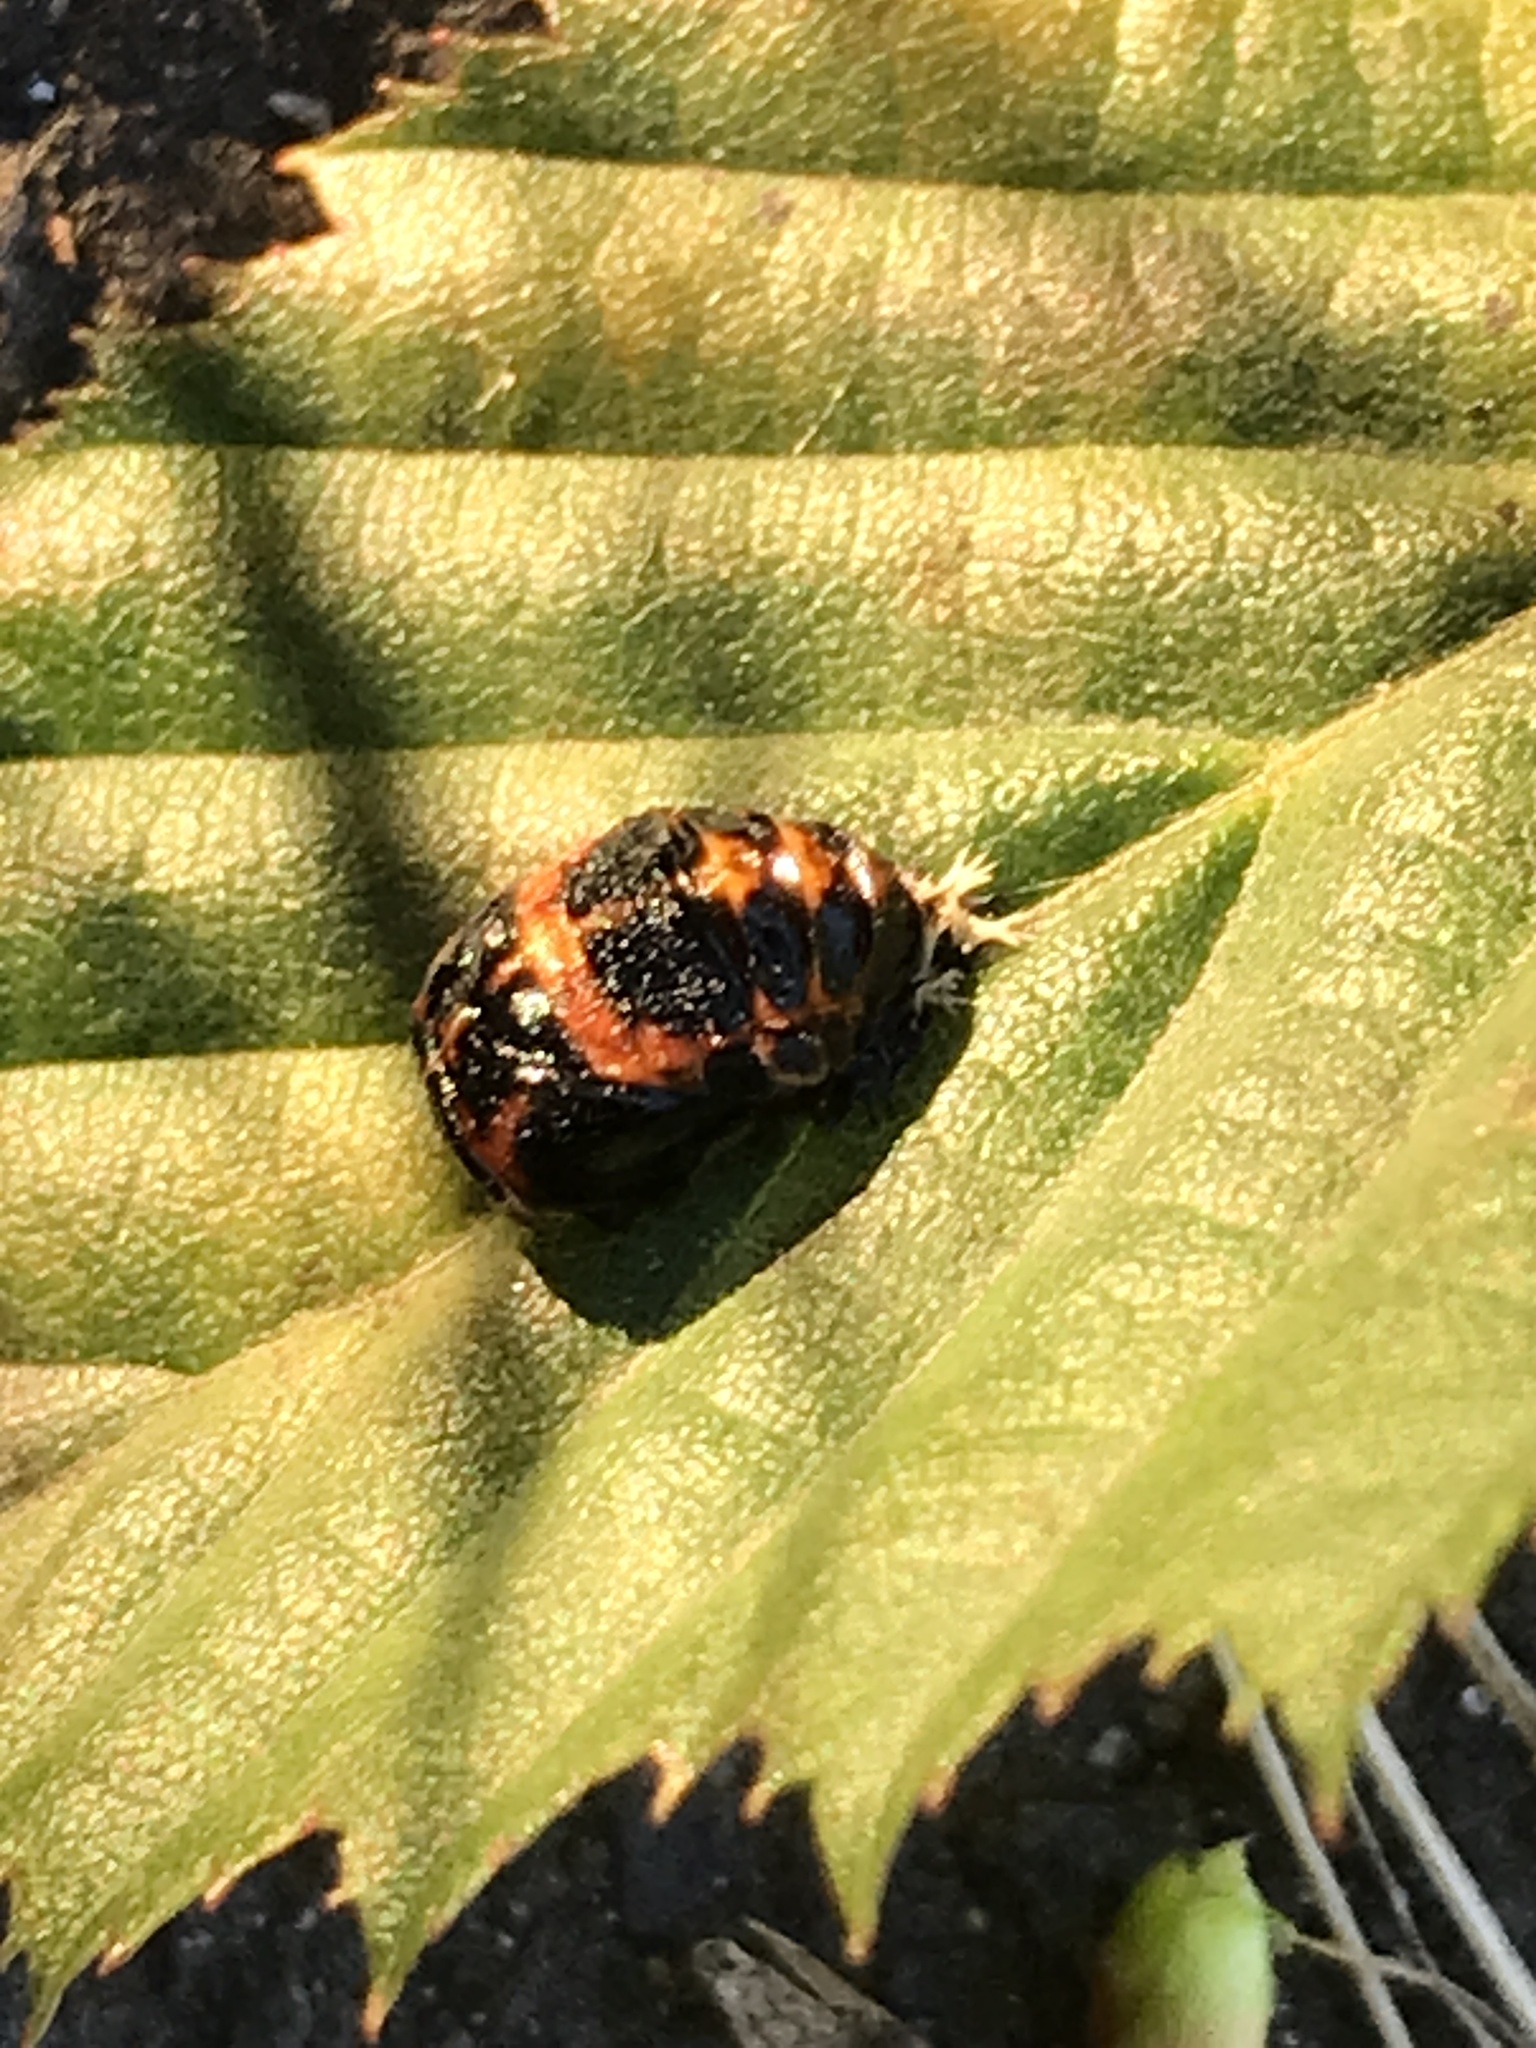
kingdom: Animalia
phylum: Arthropoda
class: Insecta
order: Coleoptera
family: Coccinellidae
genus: Harmonia
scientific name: Harmonia axyridis
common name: Harlequin ladybird
